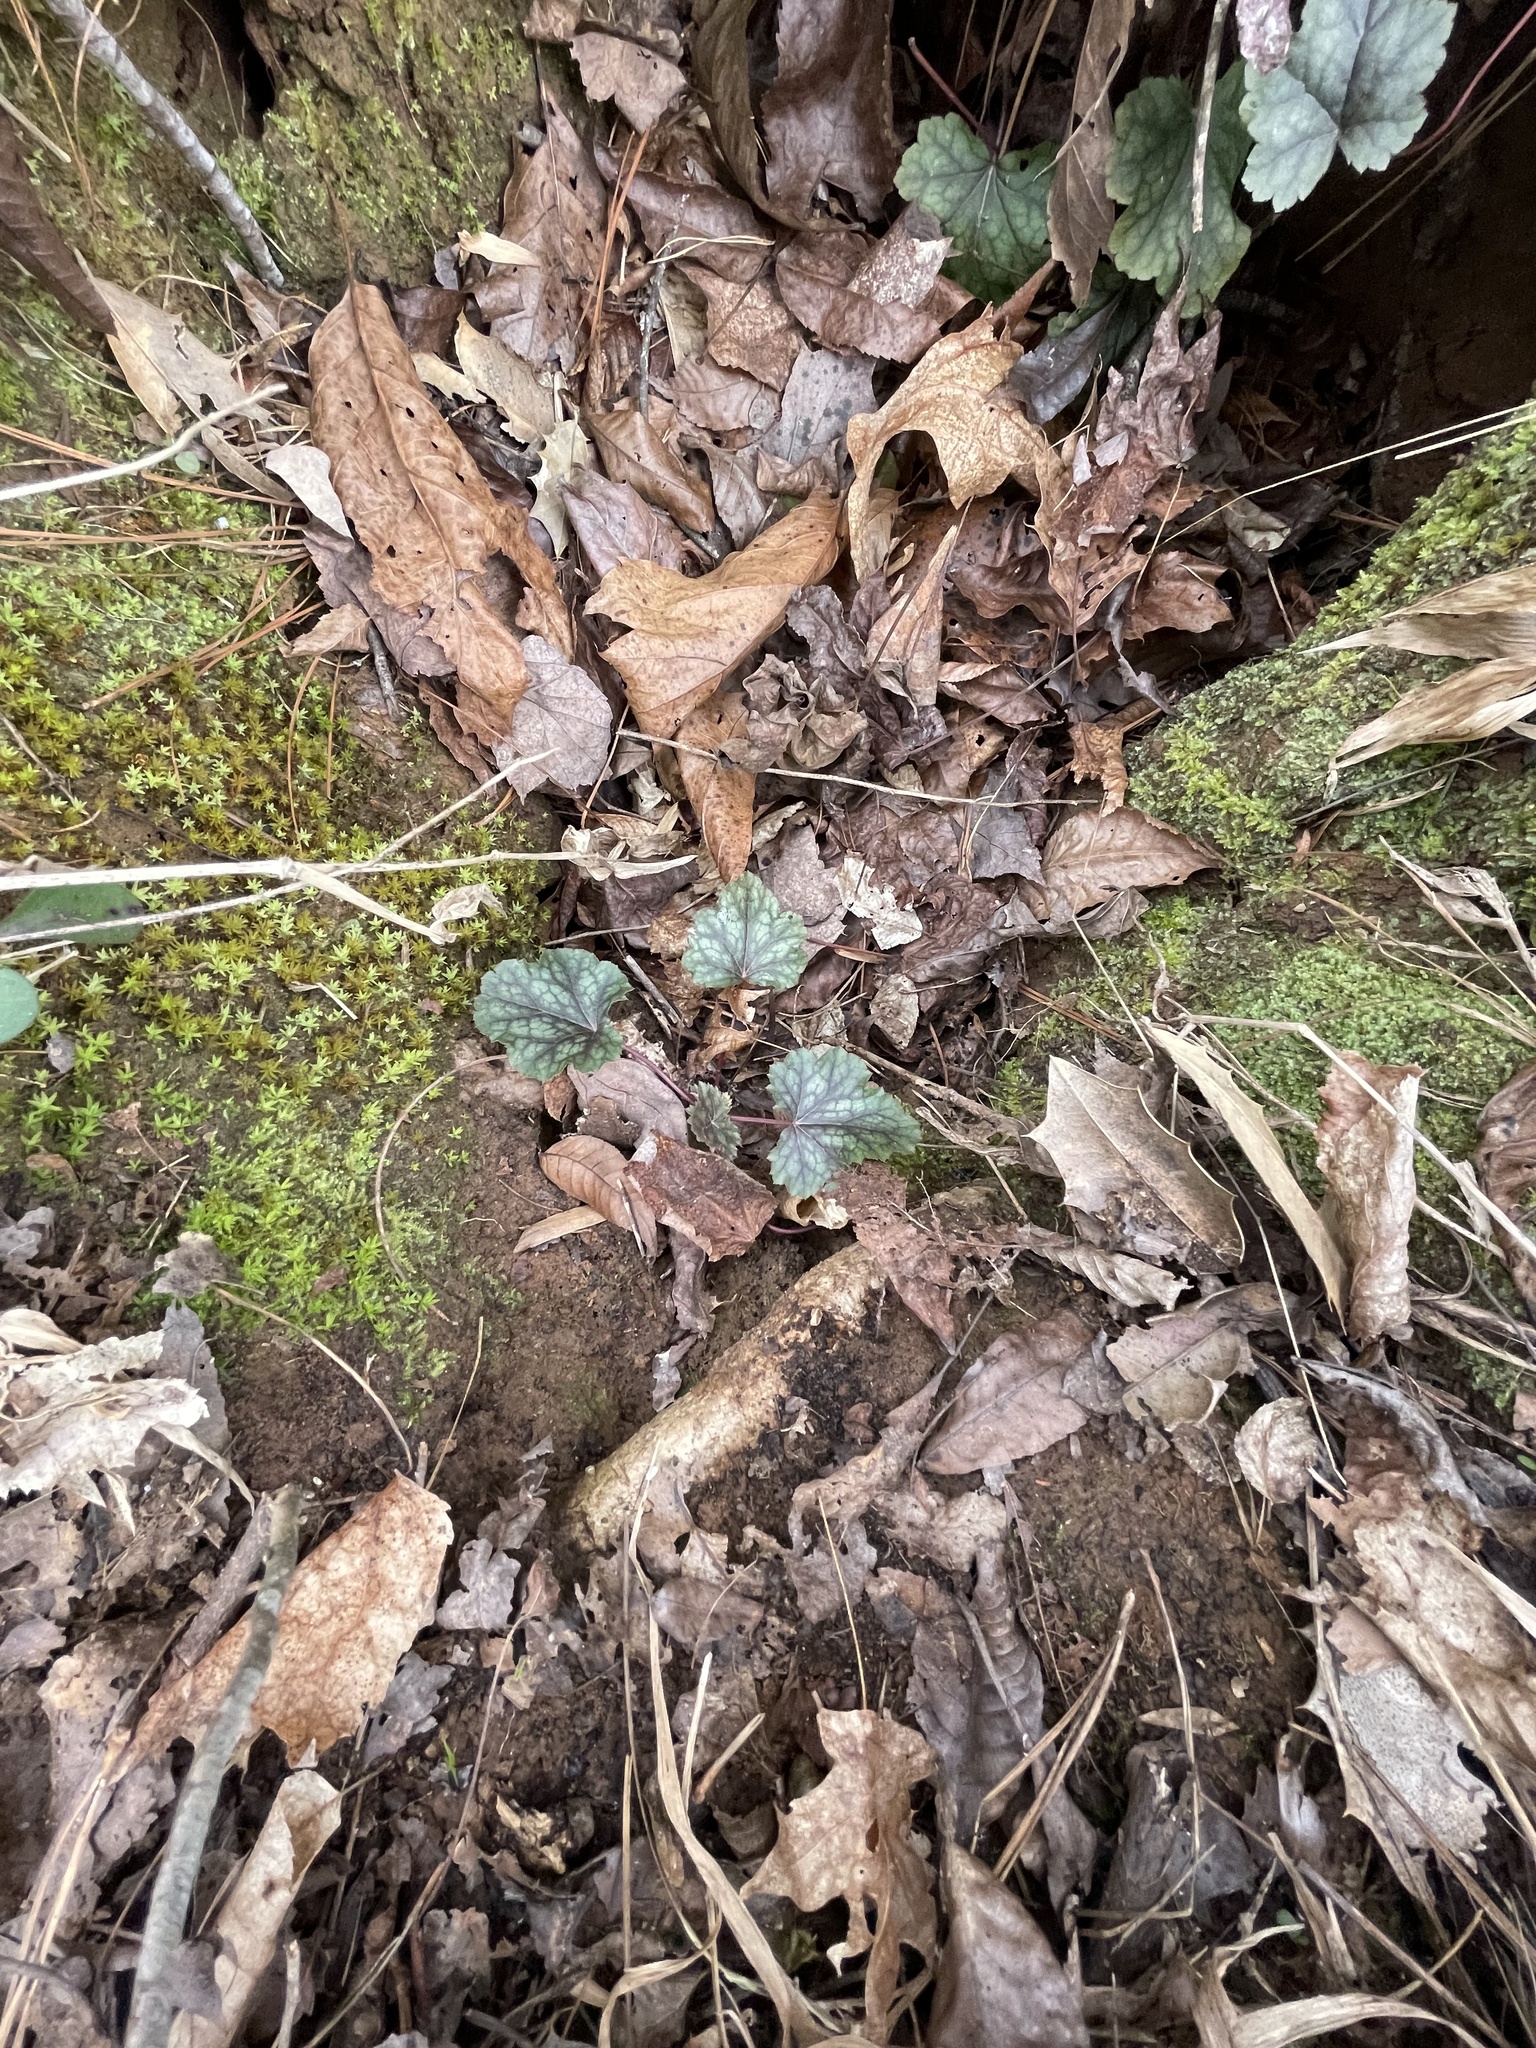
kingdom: Plantae
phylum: Tracheophyta
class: Magnoliopsida
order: Saxifragales
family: Saxifragaceae
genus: Heuchera
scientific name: Heuchera caroliniana
